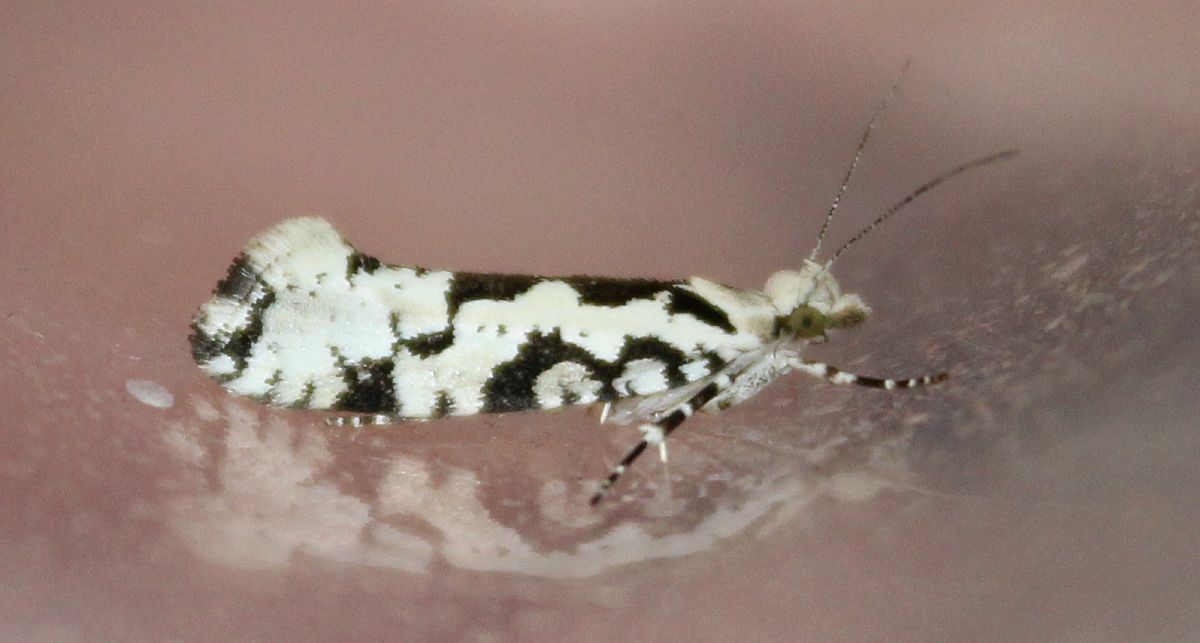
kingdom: Animalia
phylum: Arthropoda
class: Insecta
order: Lepidoptera
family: Plutellidae
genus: Ypsolophus
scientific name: Ypsolophus sequella
